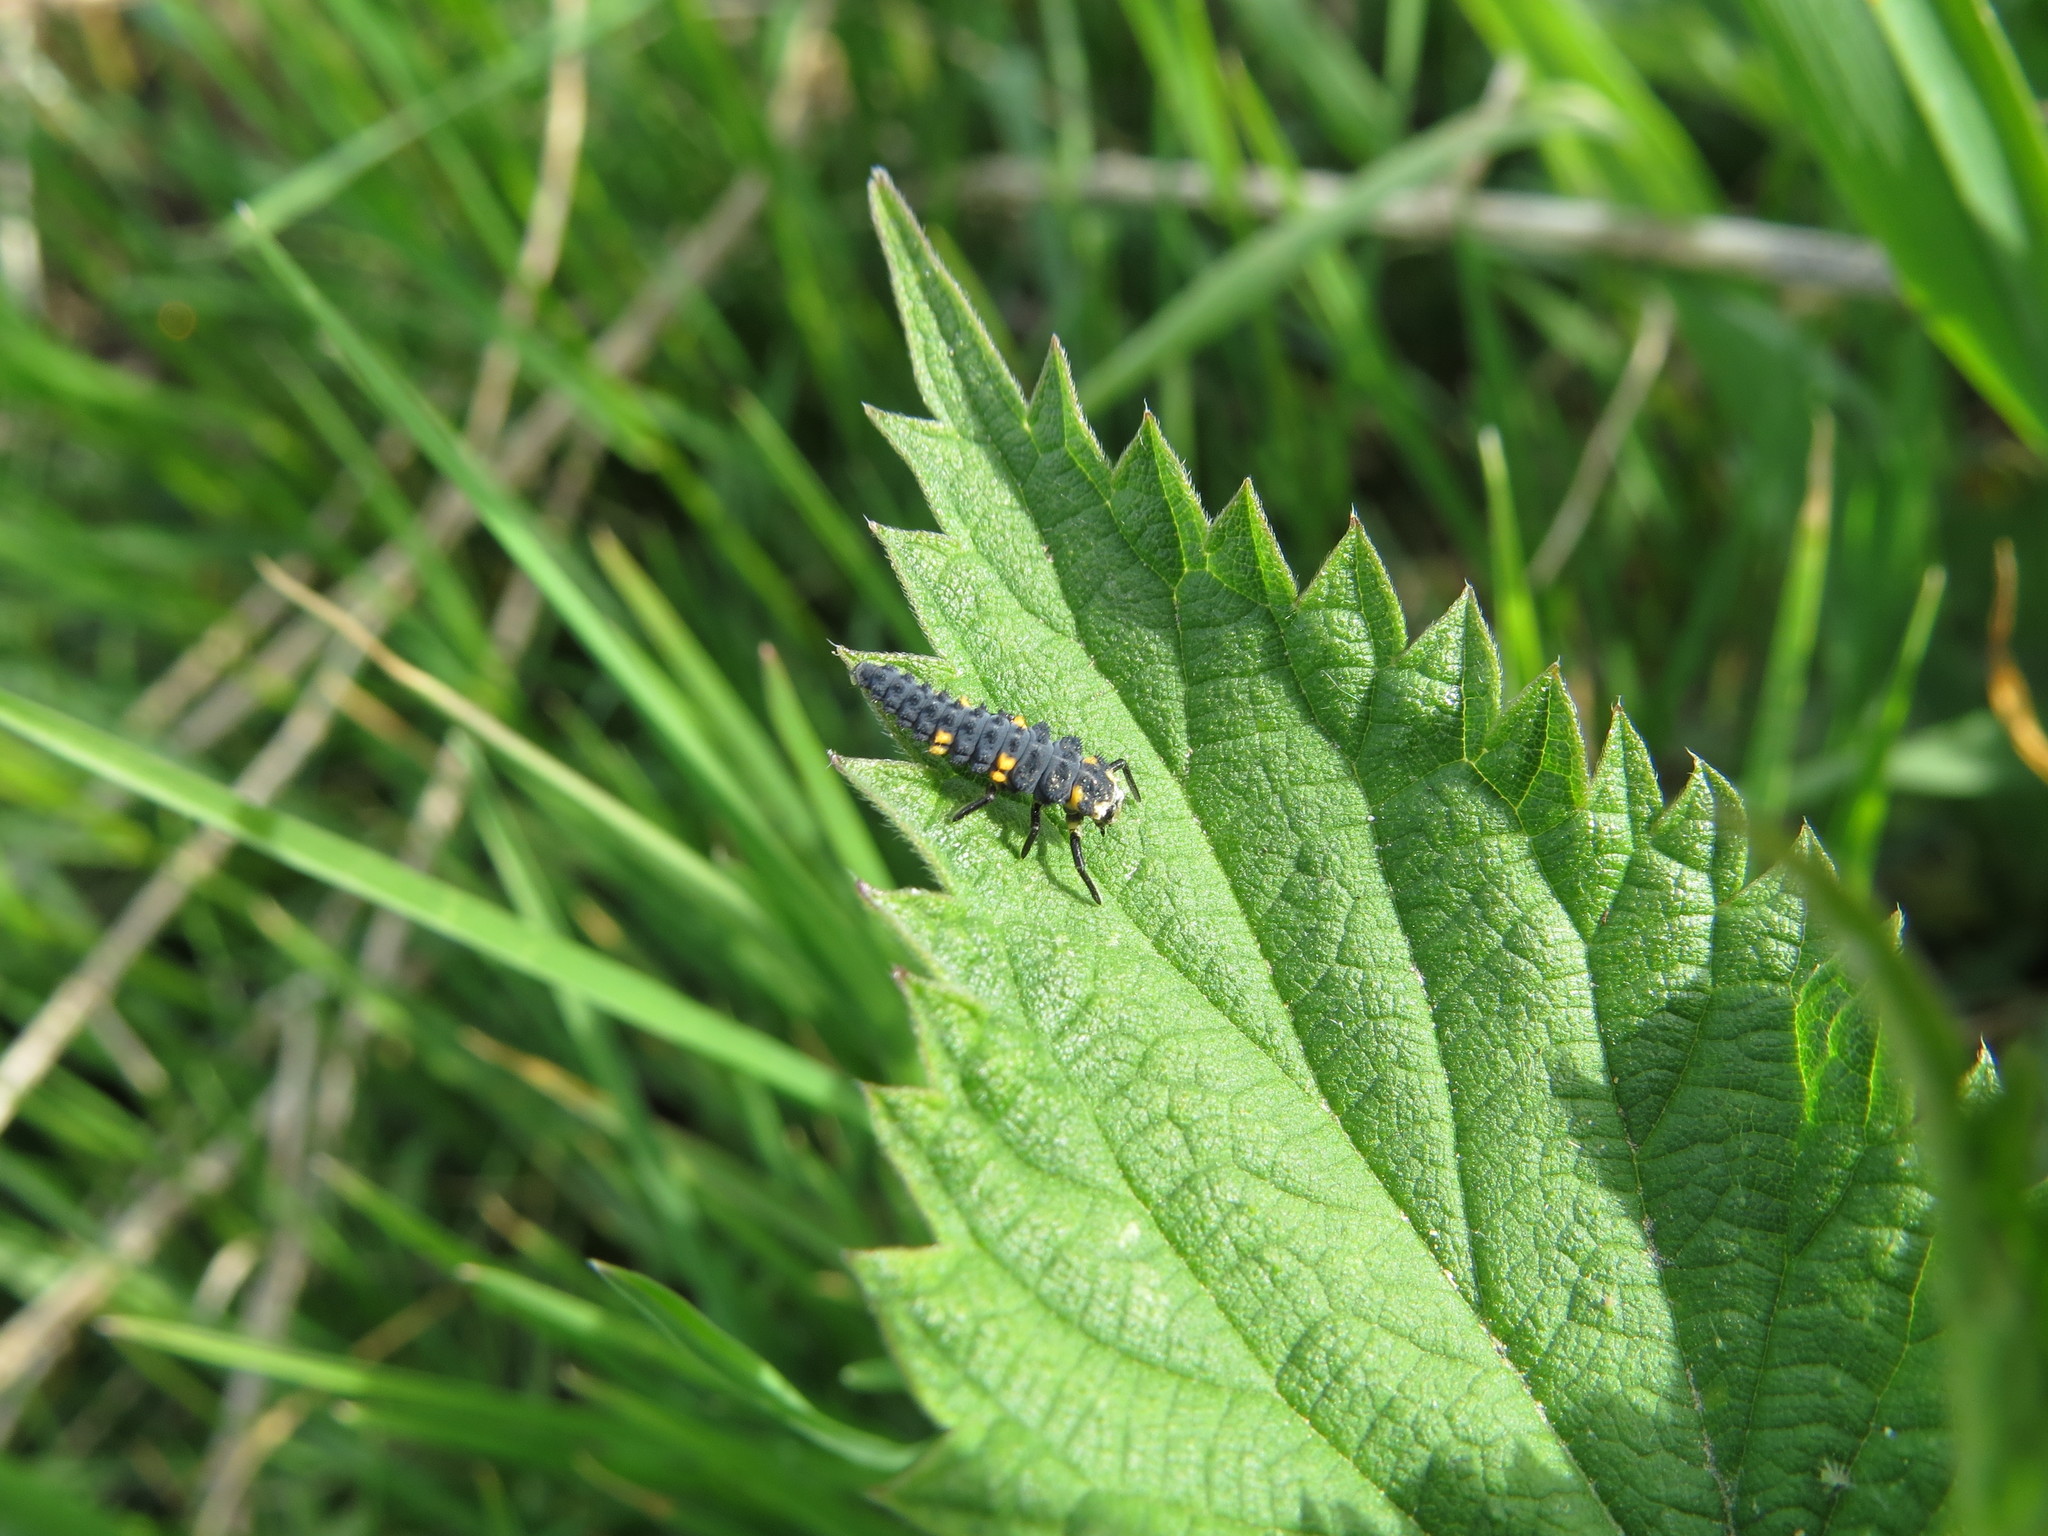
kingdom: Animalia
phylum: Arthropoda
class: Insecta
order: Coleoptera
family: Coccinellidae
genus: Coccinella
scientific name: Coccinella septempunctata
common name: Sevenspotted lady beetle
